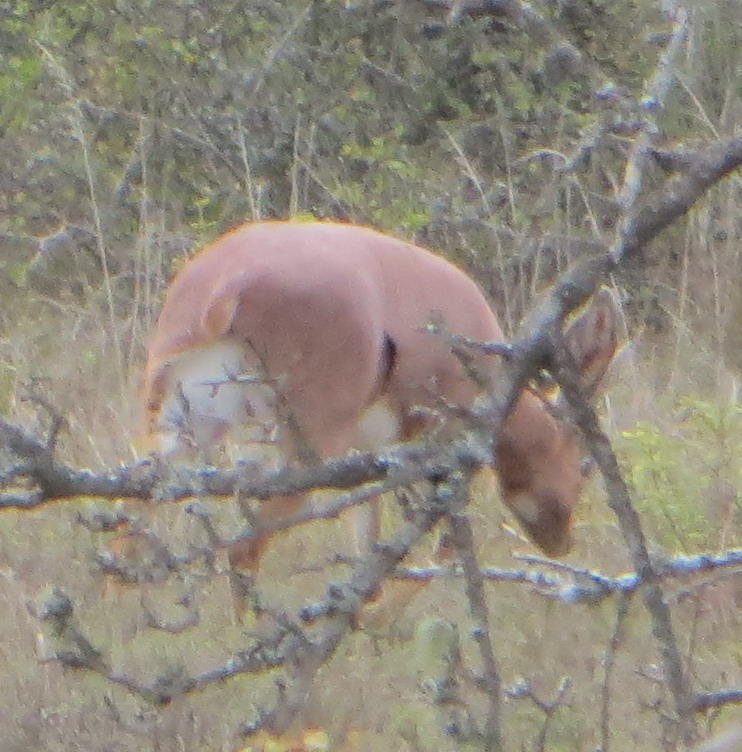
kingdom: Animalia
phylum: Chordata
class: Mammalia
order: Artiodactyla
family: Bovidae
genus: Raphicerus
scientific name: Raphicerus campestris
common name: Steenbok
